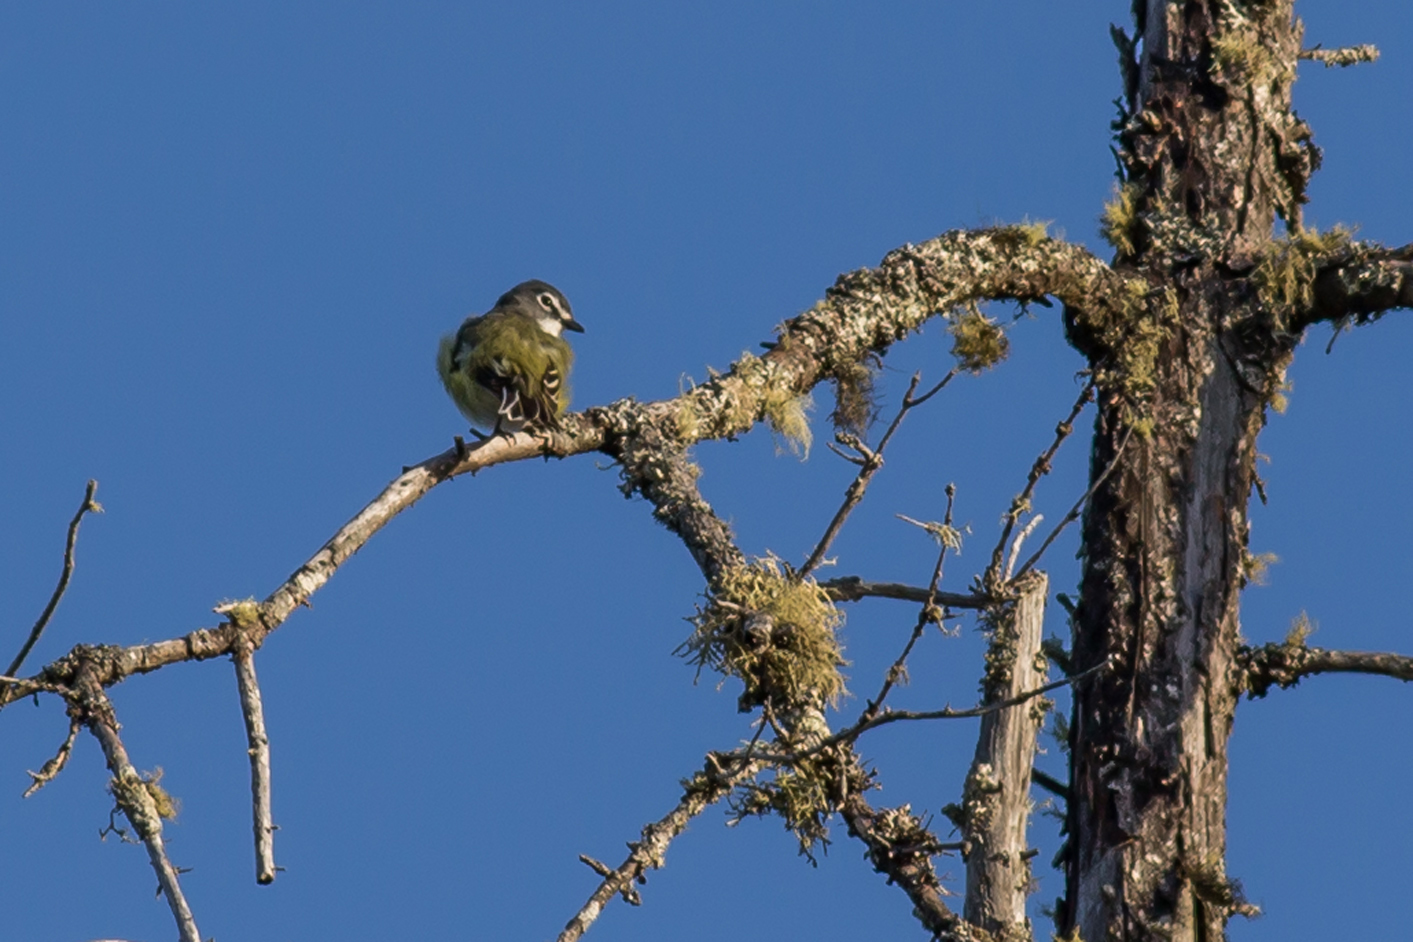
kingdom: Animalia
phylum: Chordata
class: Aves
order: Passeriformes
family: Vireonidae
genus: Vireo
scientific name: Vireo solitarius
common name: Blue-headed vireo
